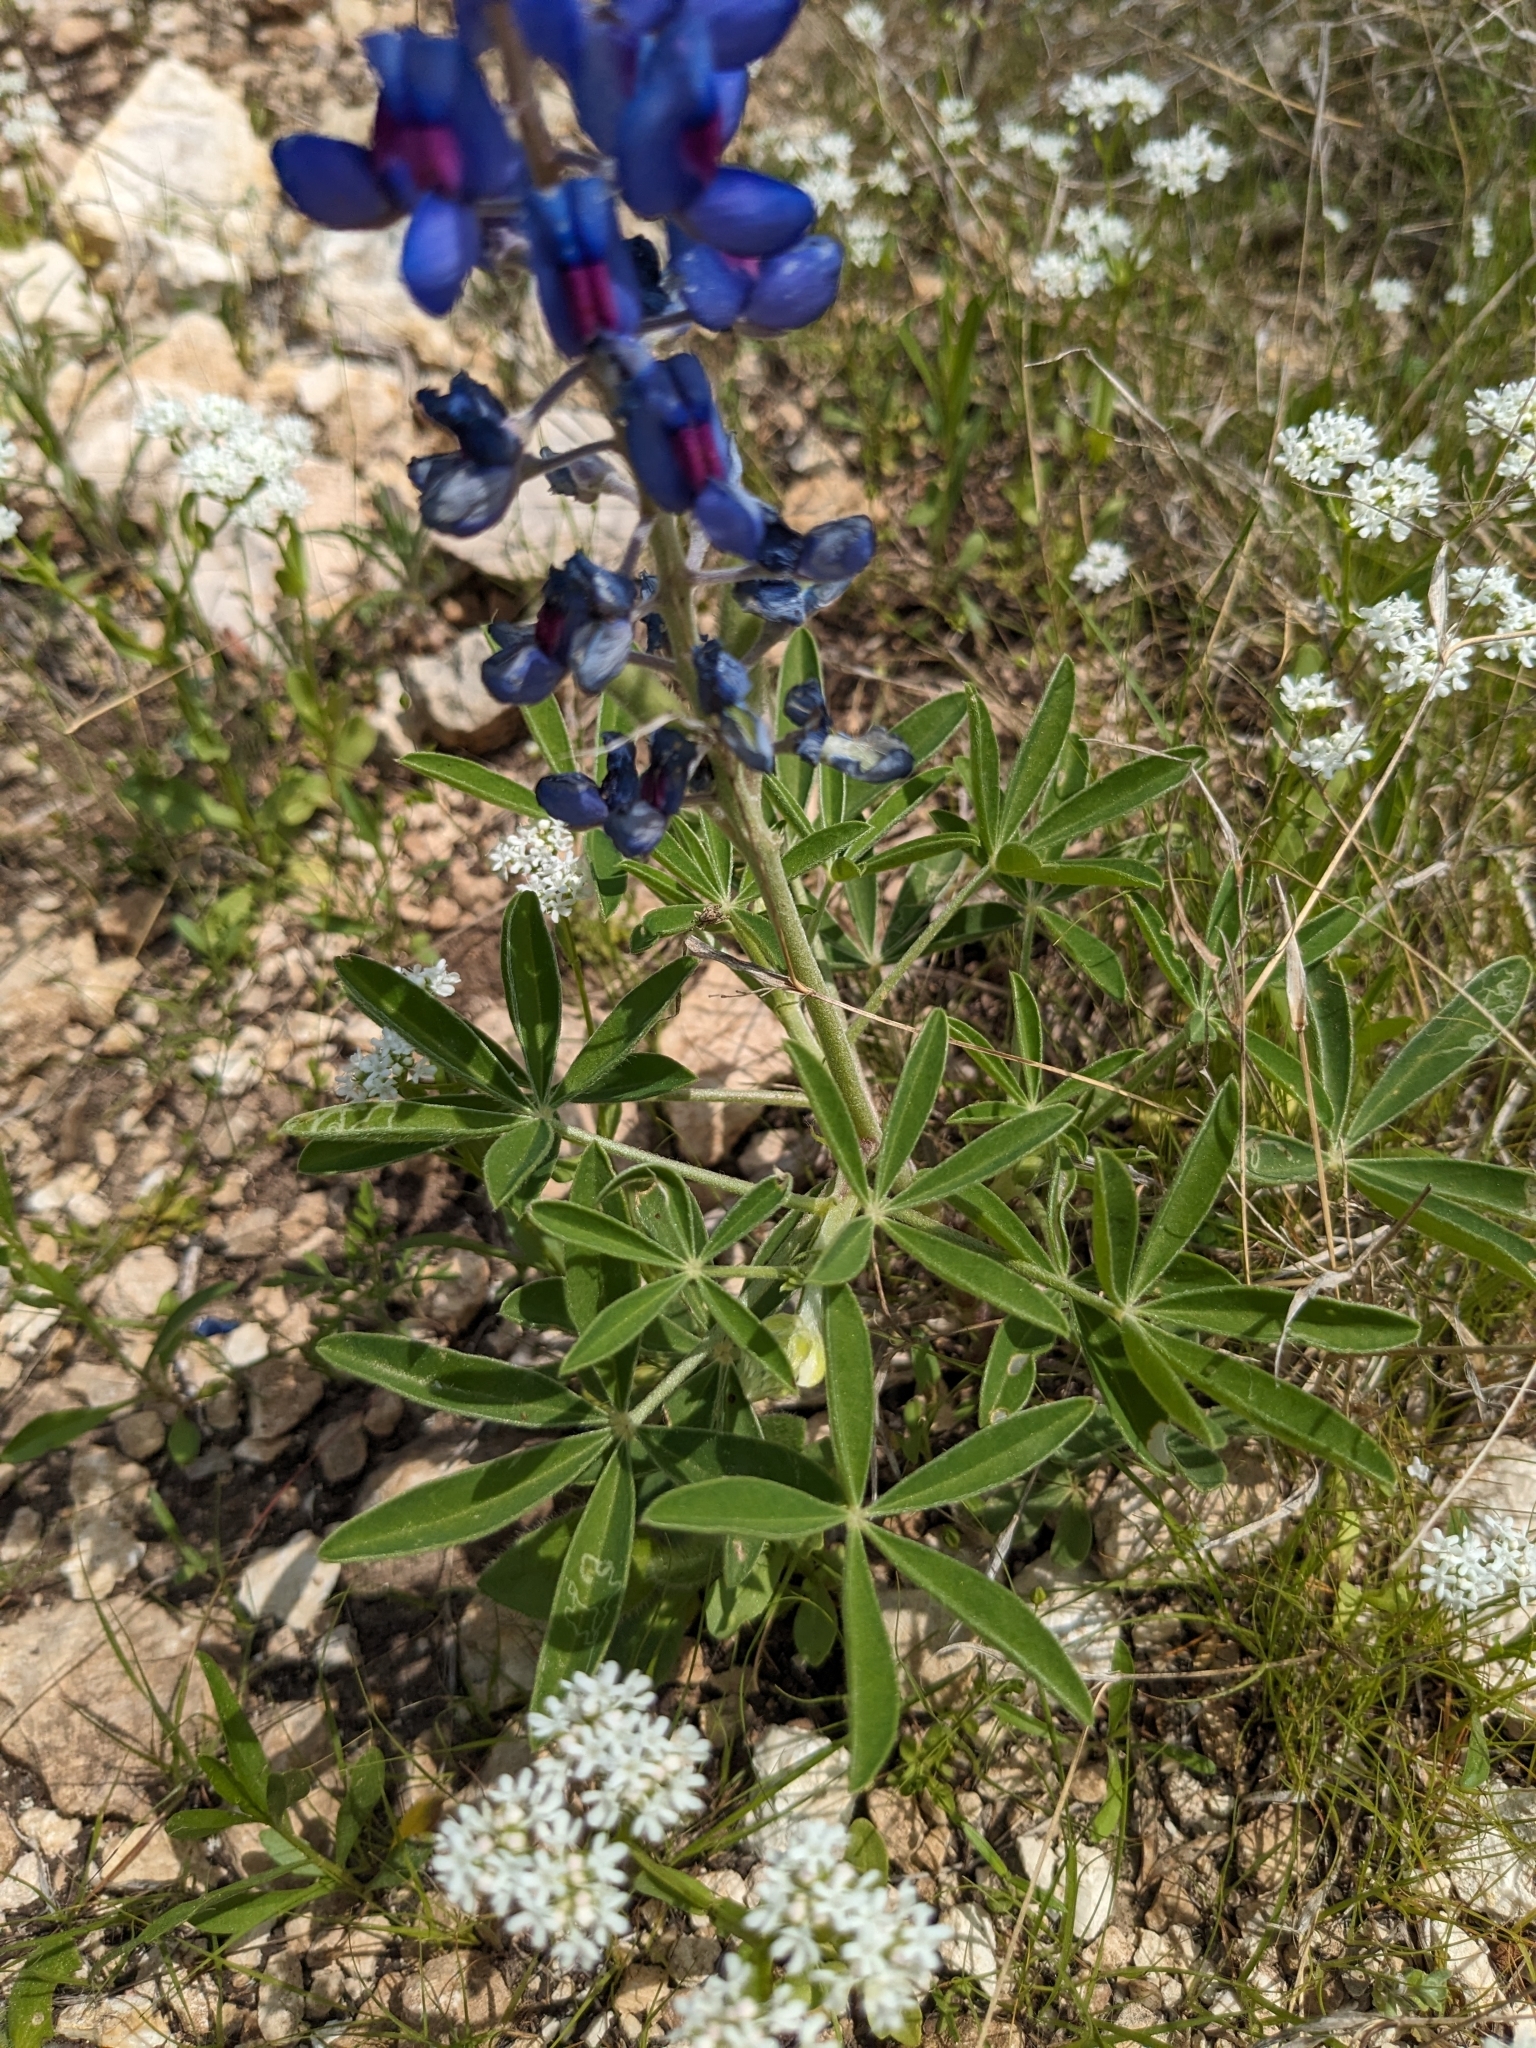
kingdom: Plantae
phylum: Tracheophyta
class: Magnoliopsida
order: Fabales
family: Fabaceae
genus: Lupinus
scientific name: Lupinus texensis
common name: Texas bluebonnet
